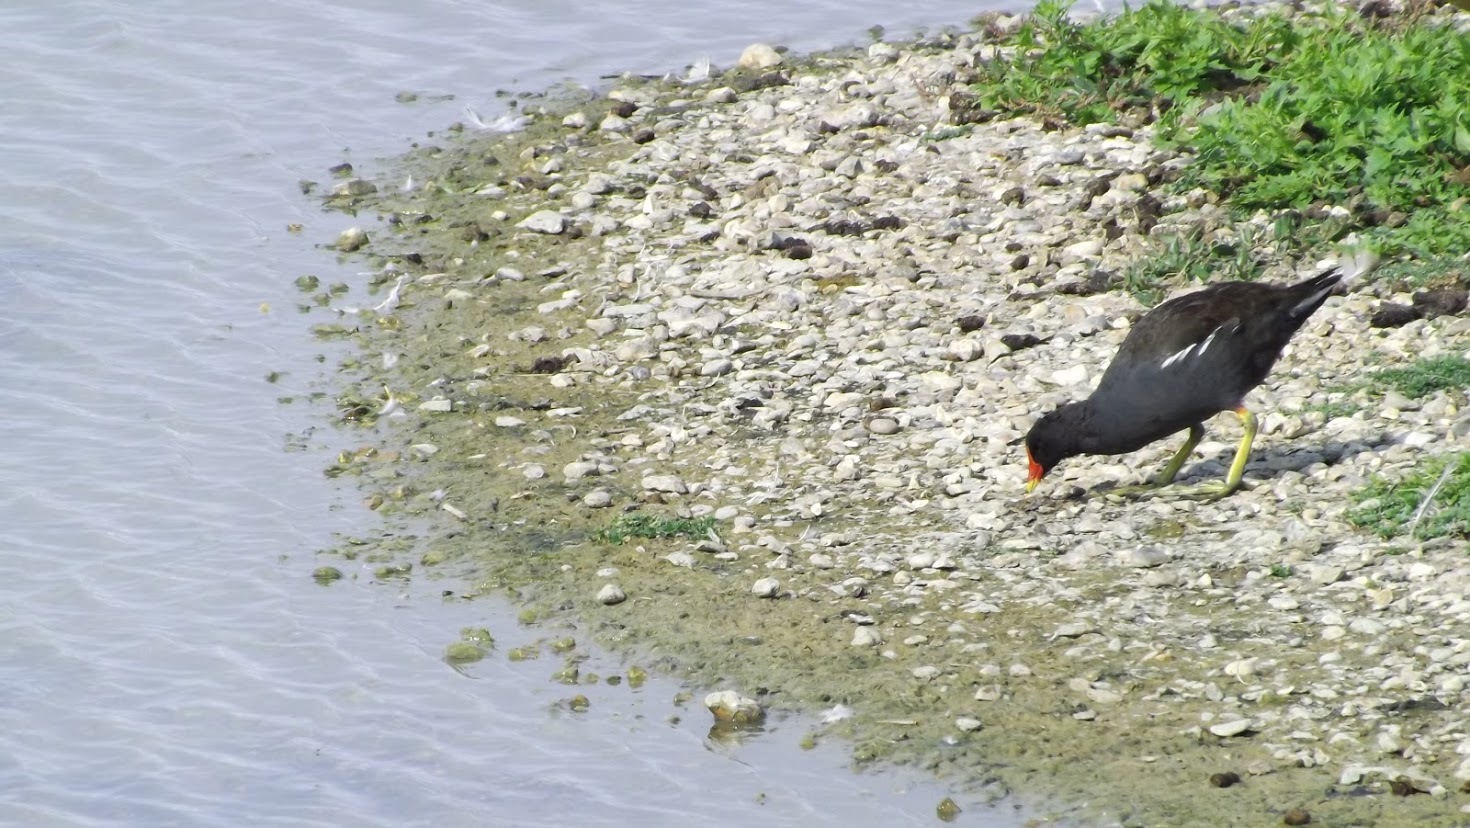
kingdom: Animalia
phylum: Chordata
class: Aves
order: Gruiformes
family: Rallidae
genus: Gallinula
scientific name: Gallinula chloropus
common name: Common moorhen
